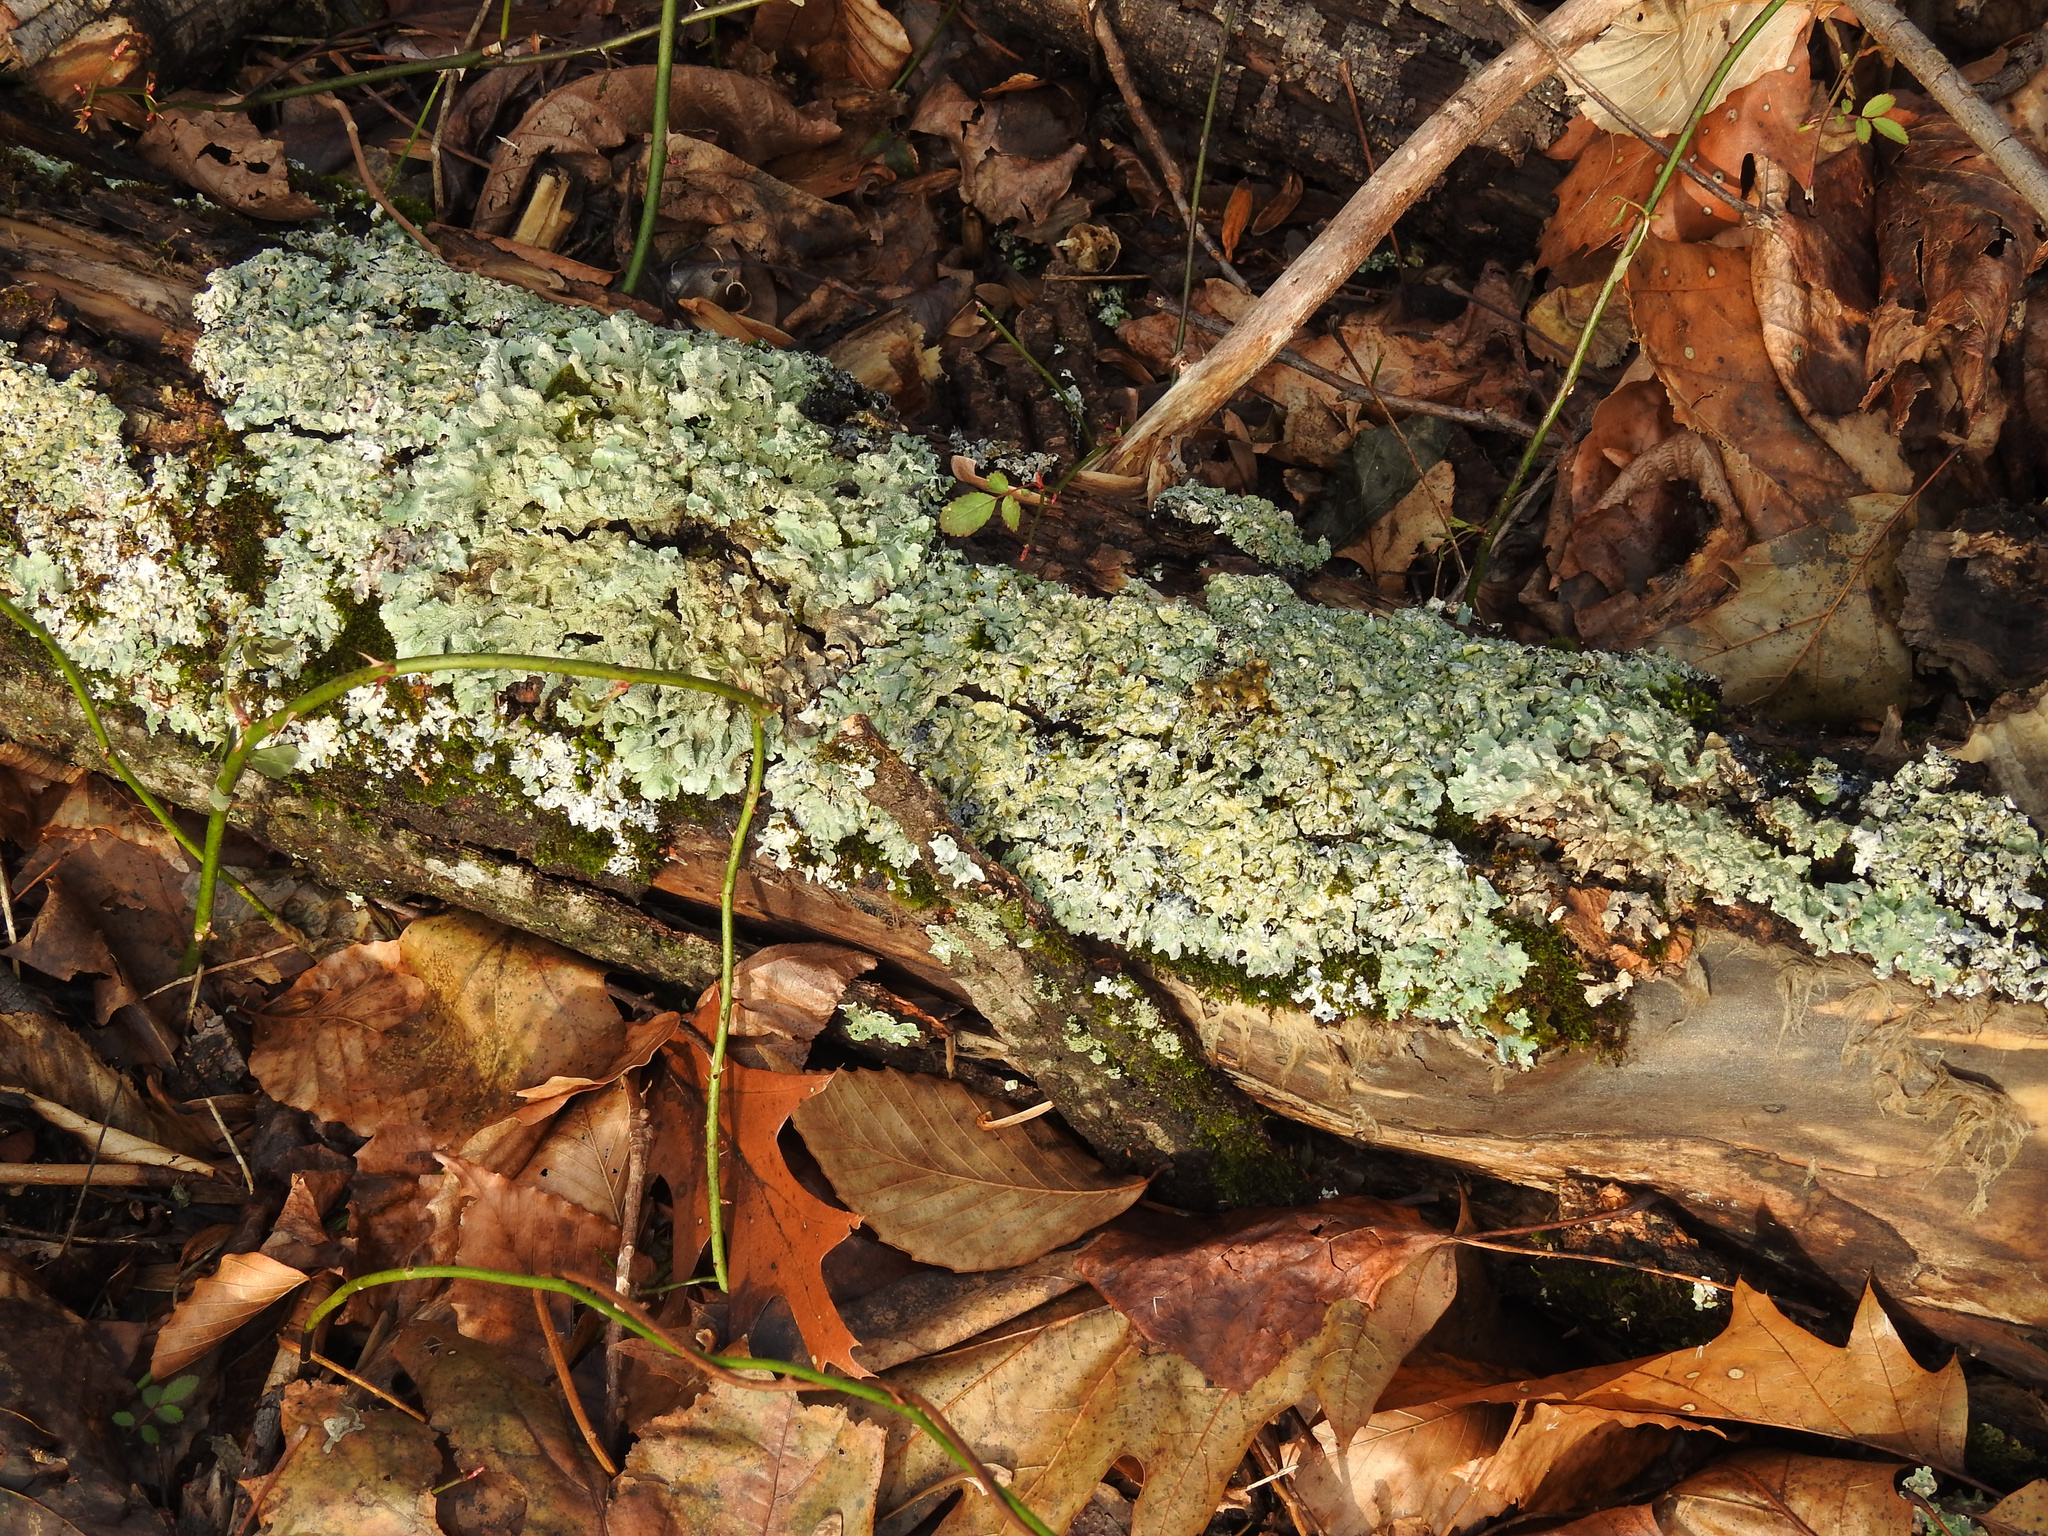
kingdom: Fungi
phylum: Ascomycota
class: Lecanoromycetes
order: Lecanorales
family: Parmeliaceae
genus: Flavoparmelia
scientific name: Flavoparmelia caperata
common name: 40-mile per hour lichen
